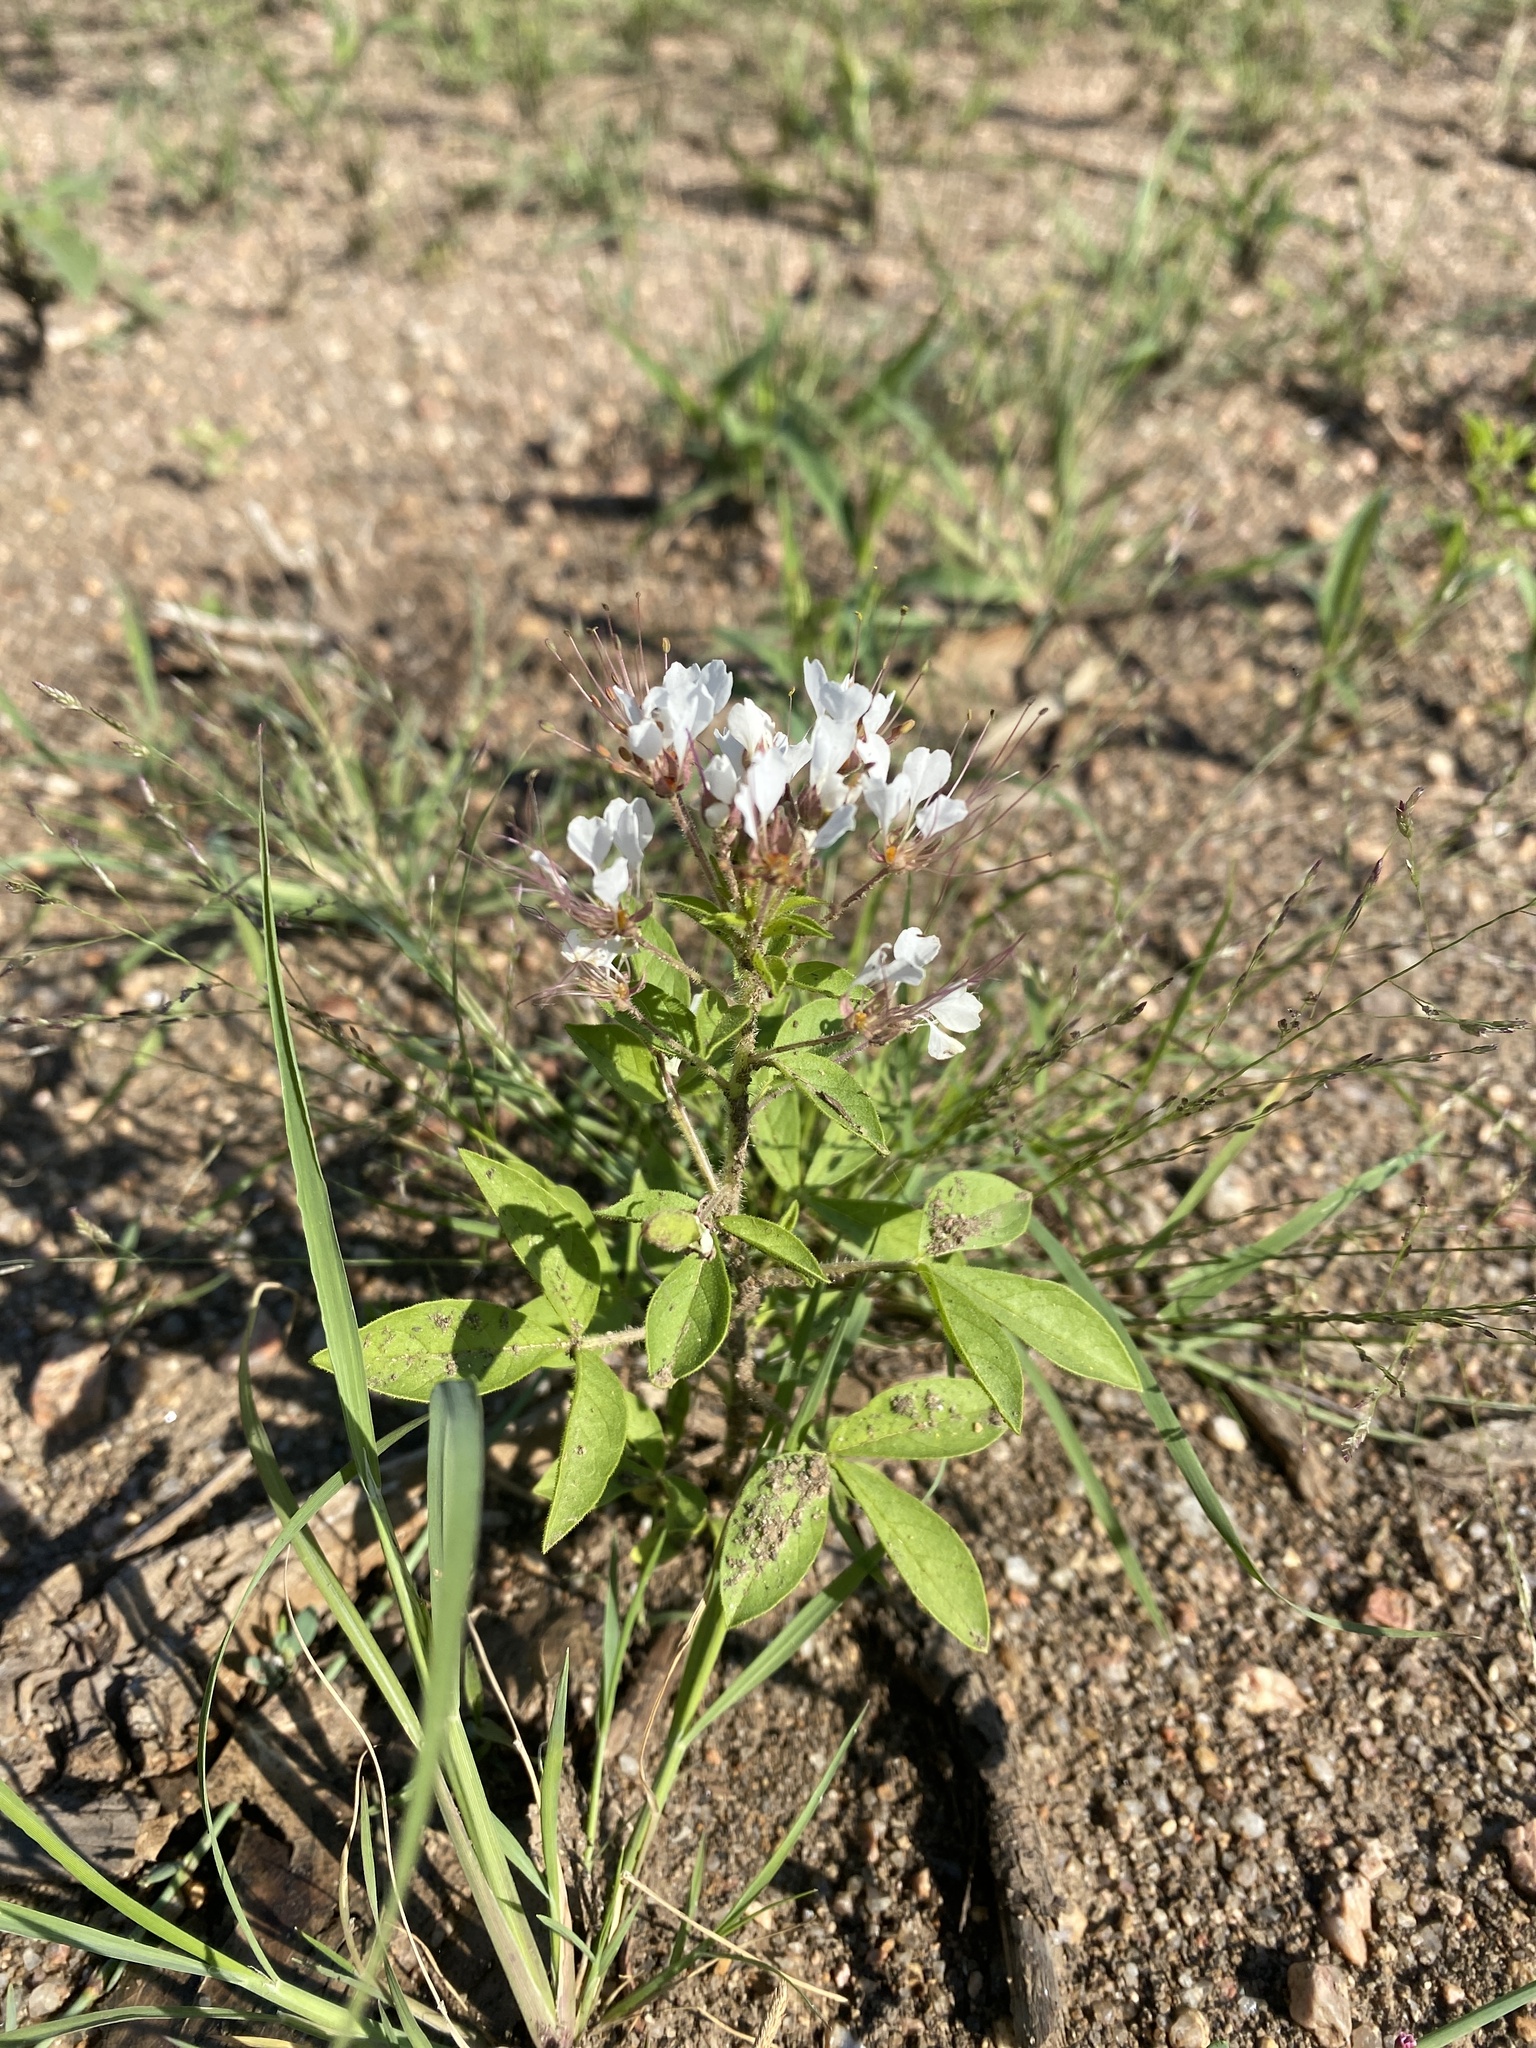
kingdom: Plantae
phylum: Tracheophyta
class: Magnoliopsida
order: Brassicales
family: Cleomaceae
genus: Polanisia
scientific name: Polanisia dodecandra
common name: Clammyweed
